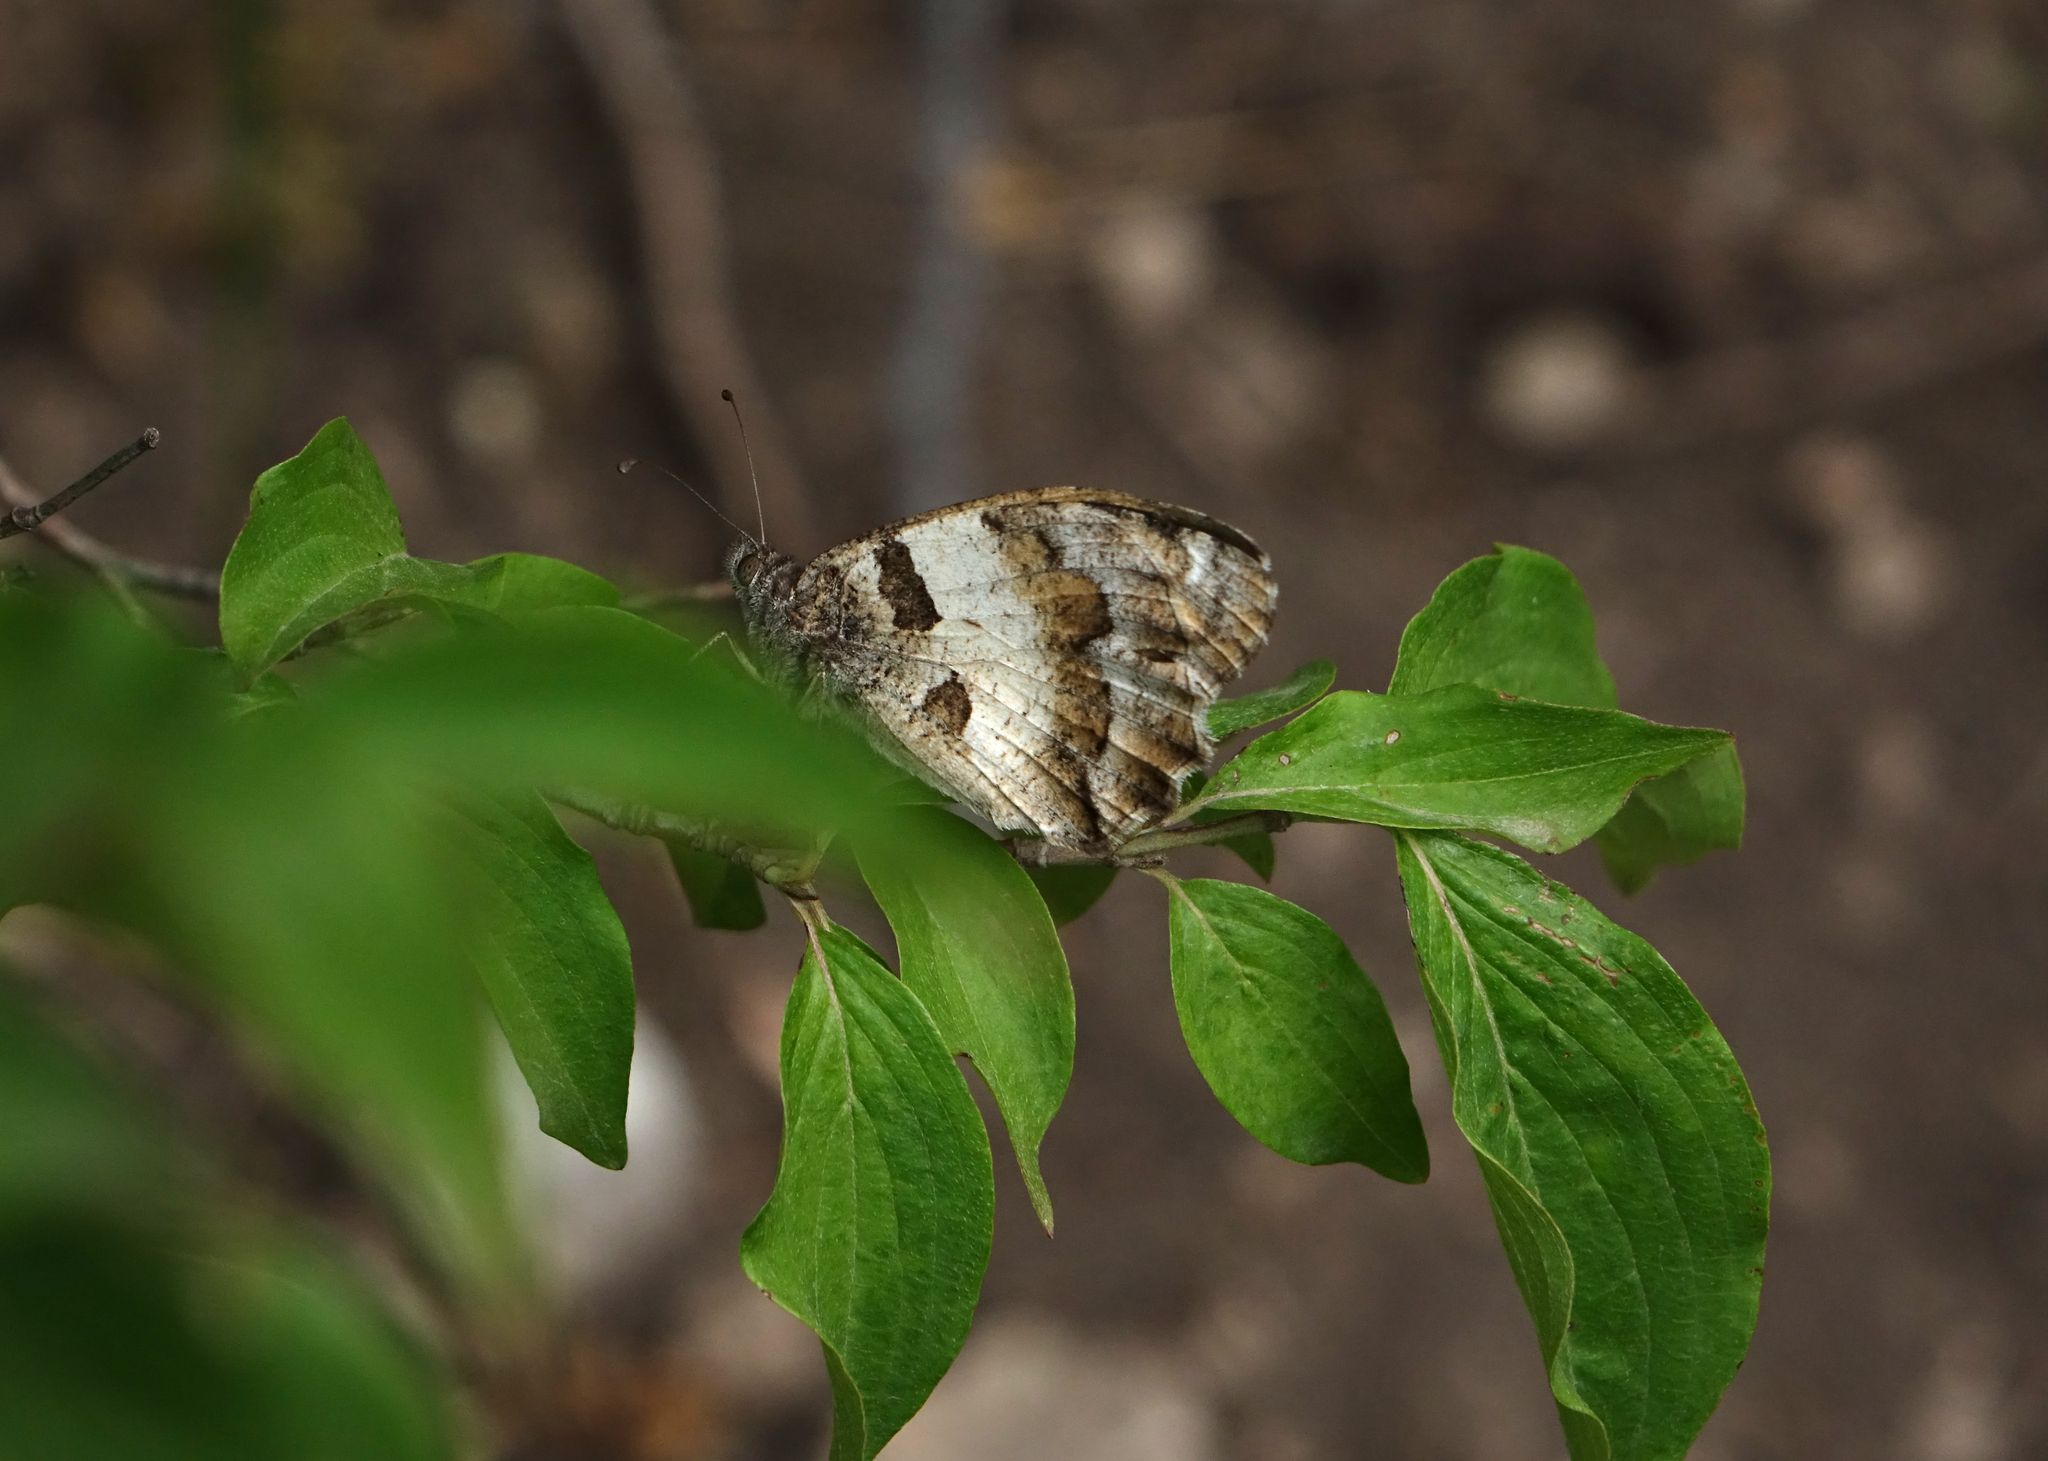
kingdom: Animalia
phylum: Arthropoda
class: Insecta
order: Lepidoptera
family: Nymphalidae
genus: Satyrus
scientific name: Satyrus briseis
